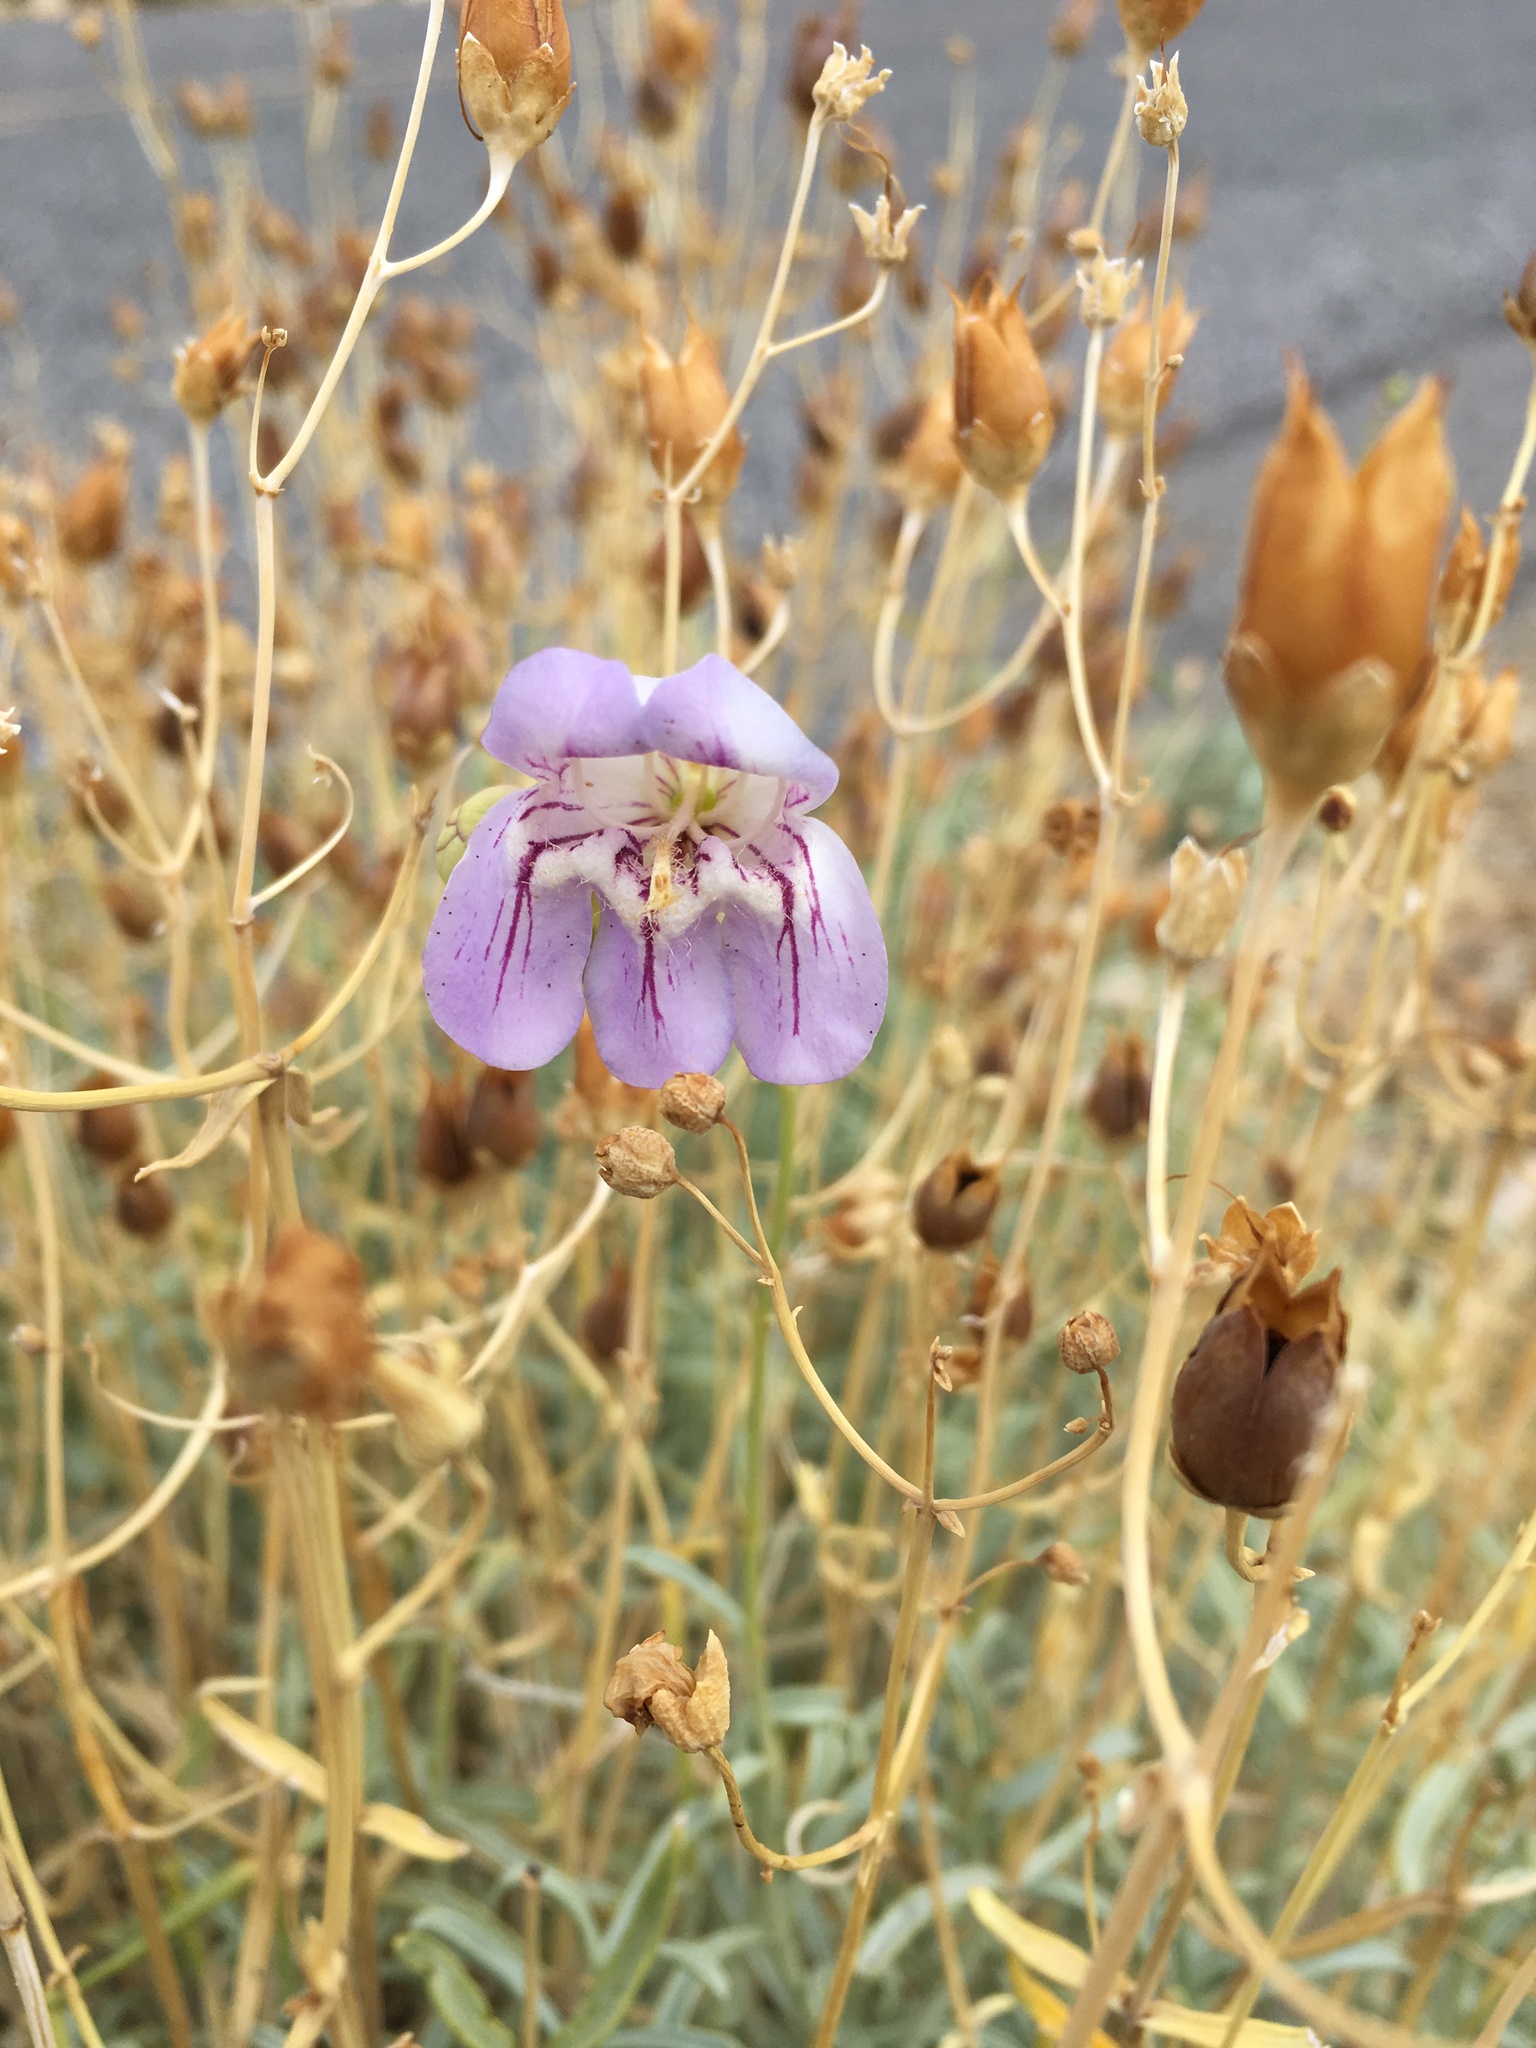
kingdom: Plantae
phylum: Tracheophyta
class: Magnoliopsida
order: Lamiales
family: Plantaginaceae
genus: Penstemon
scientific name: Penstemon fruticiformis
